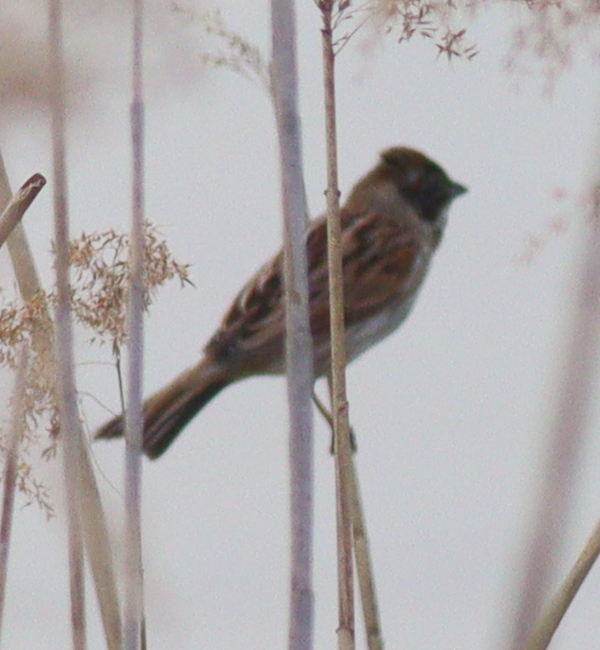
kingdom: Animalia
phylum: Chordata
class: Aves
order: Passeriformes
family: Emberizidae
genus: Emberiza
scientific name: Emberiza schoeniclus
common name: Reed bunting
